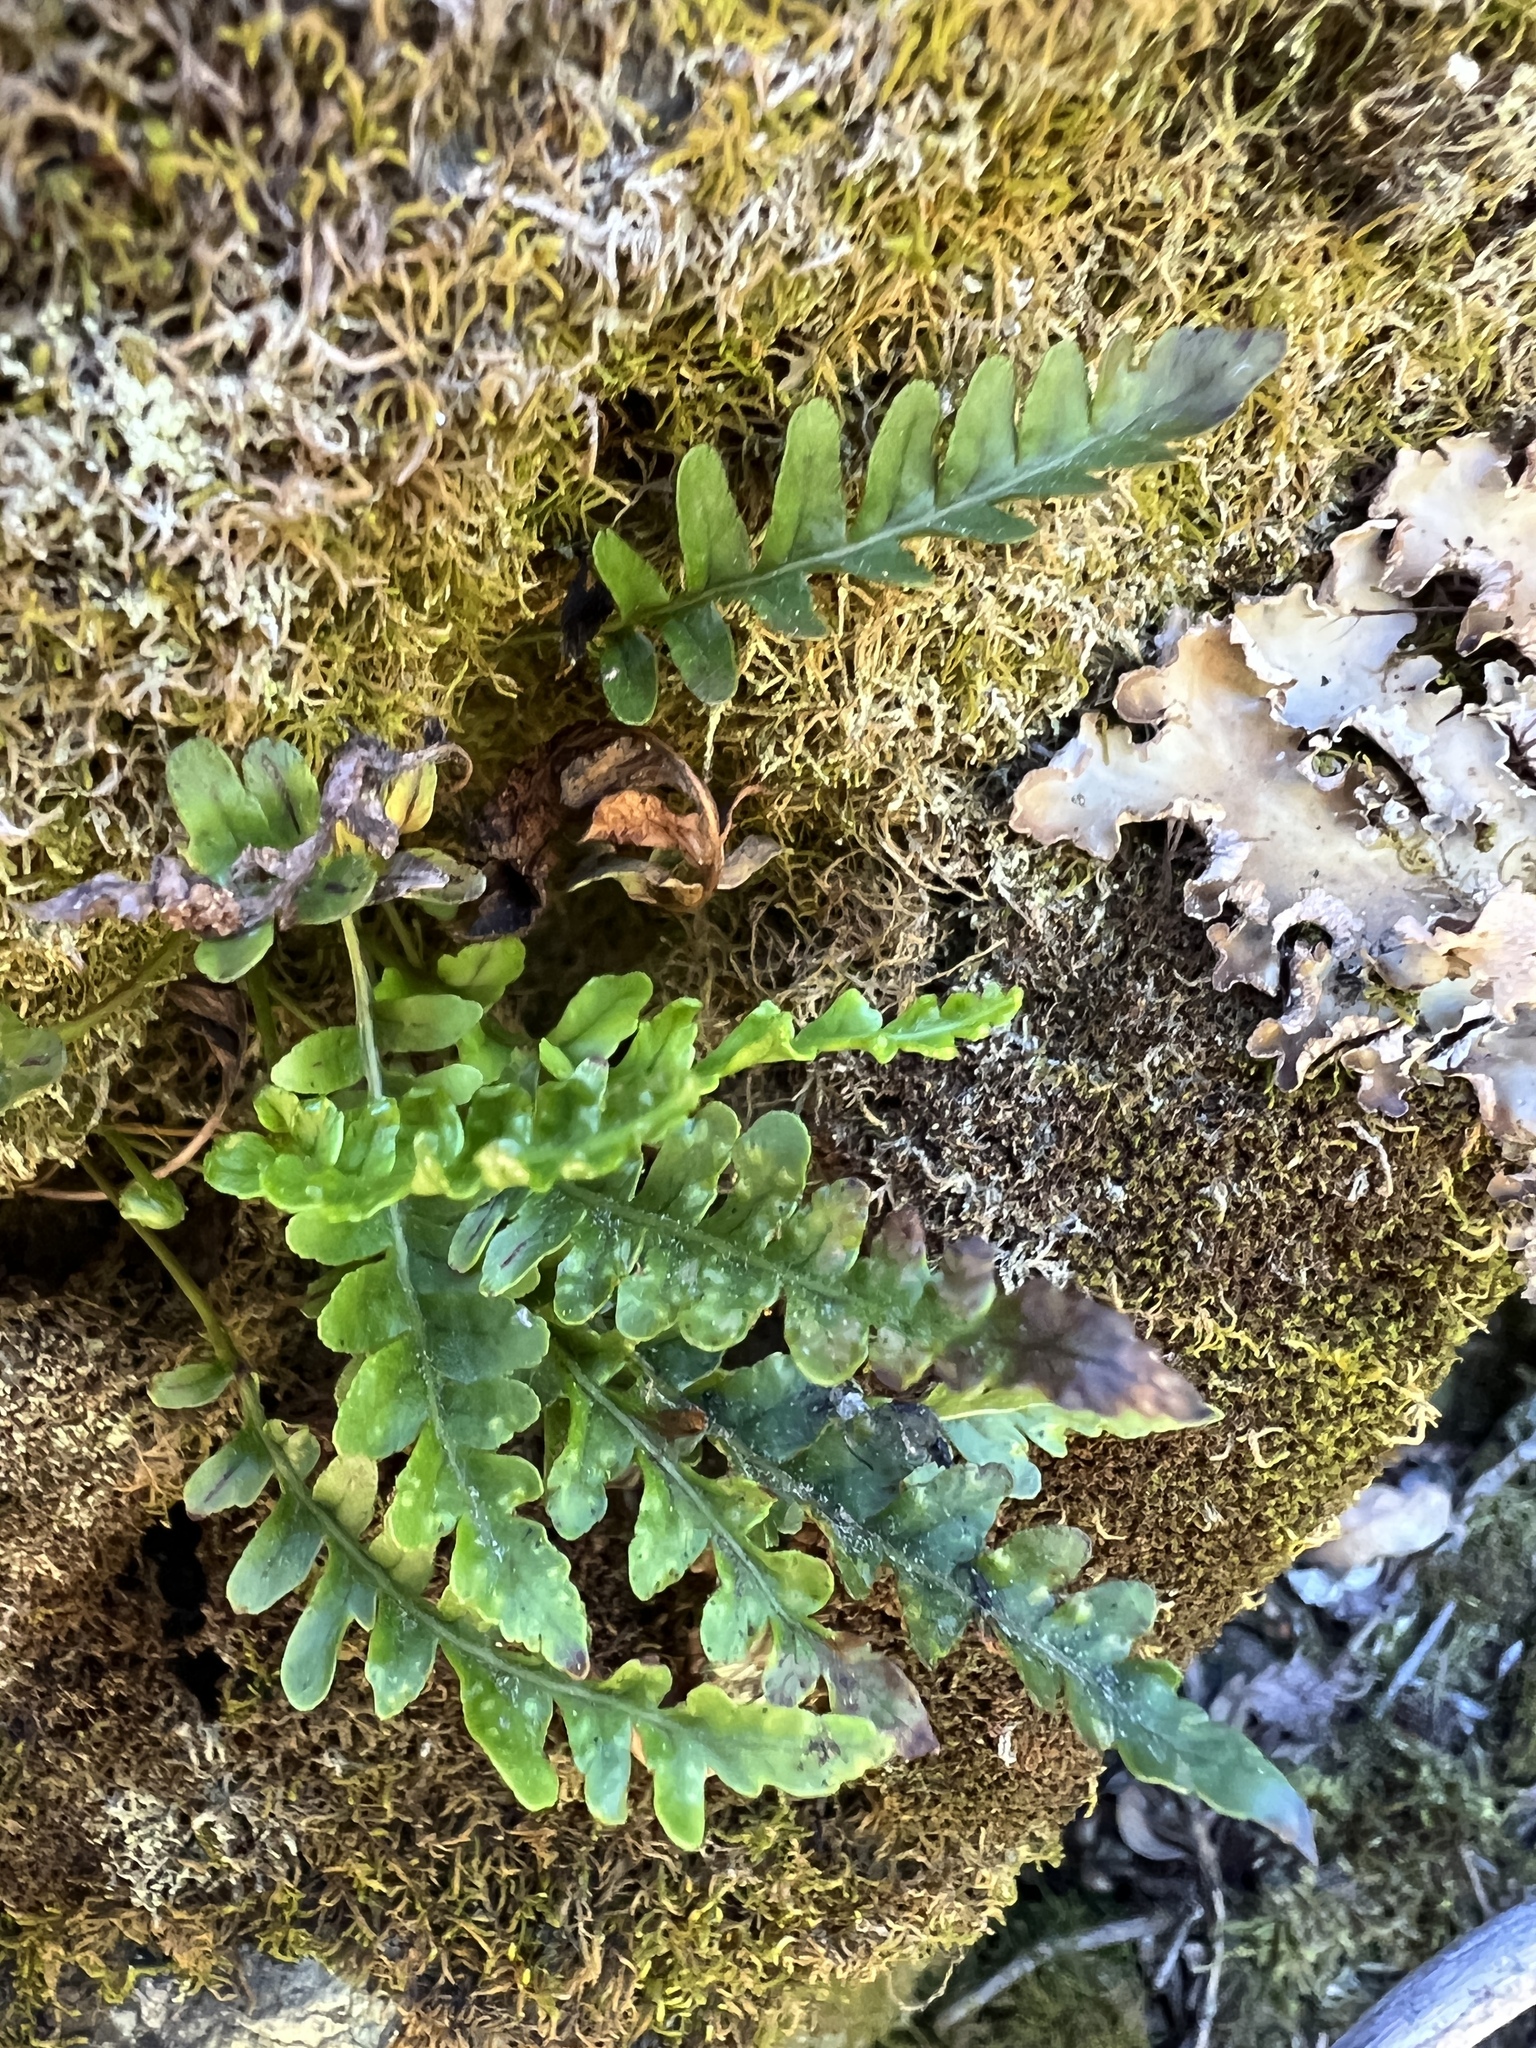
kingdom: Plantae
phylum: Tracheophyta
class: Polypodiopsida
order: Polypodiales
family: Polypodiaceae
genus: Polypodium
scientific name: Polypodium amorphum
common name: Pacific polypody
